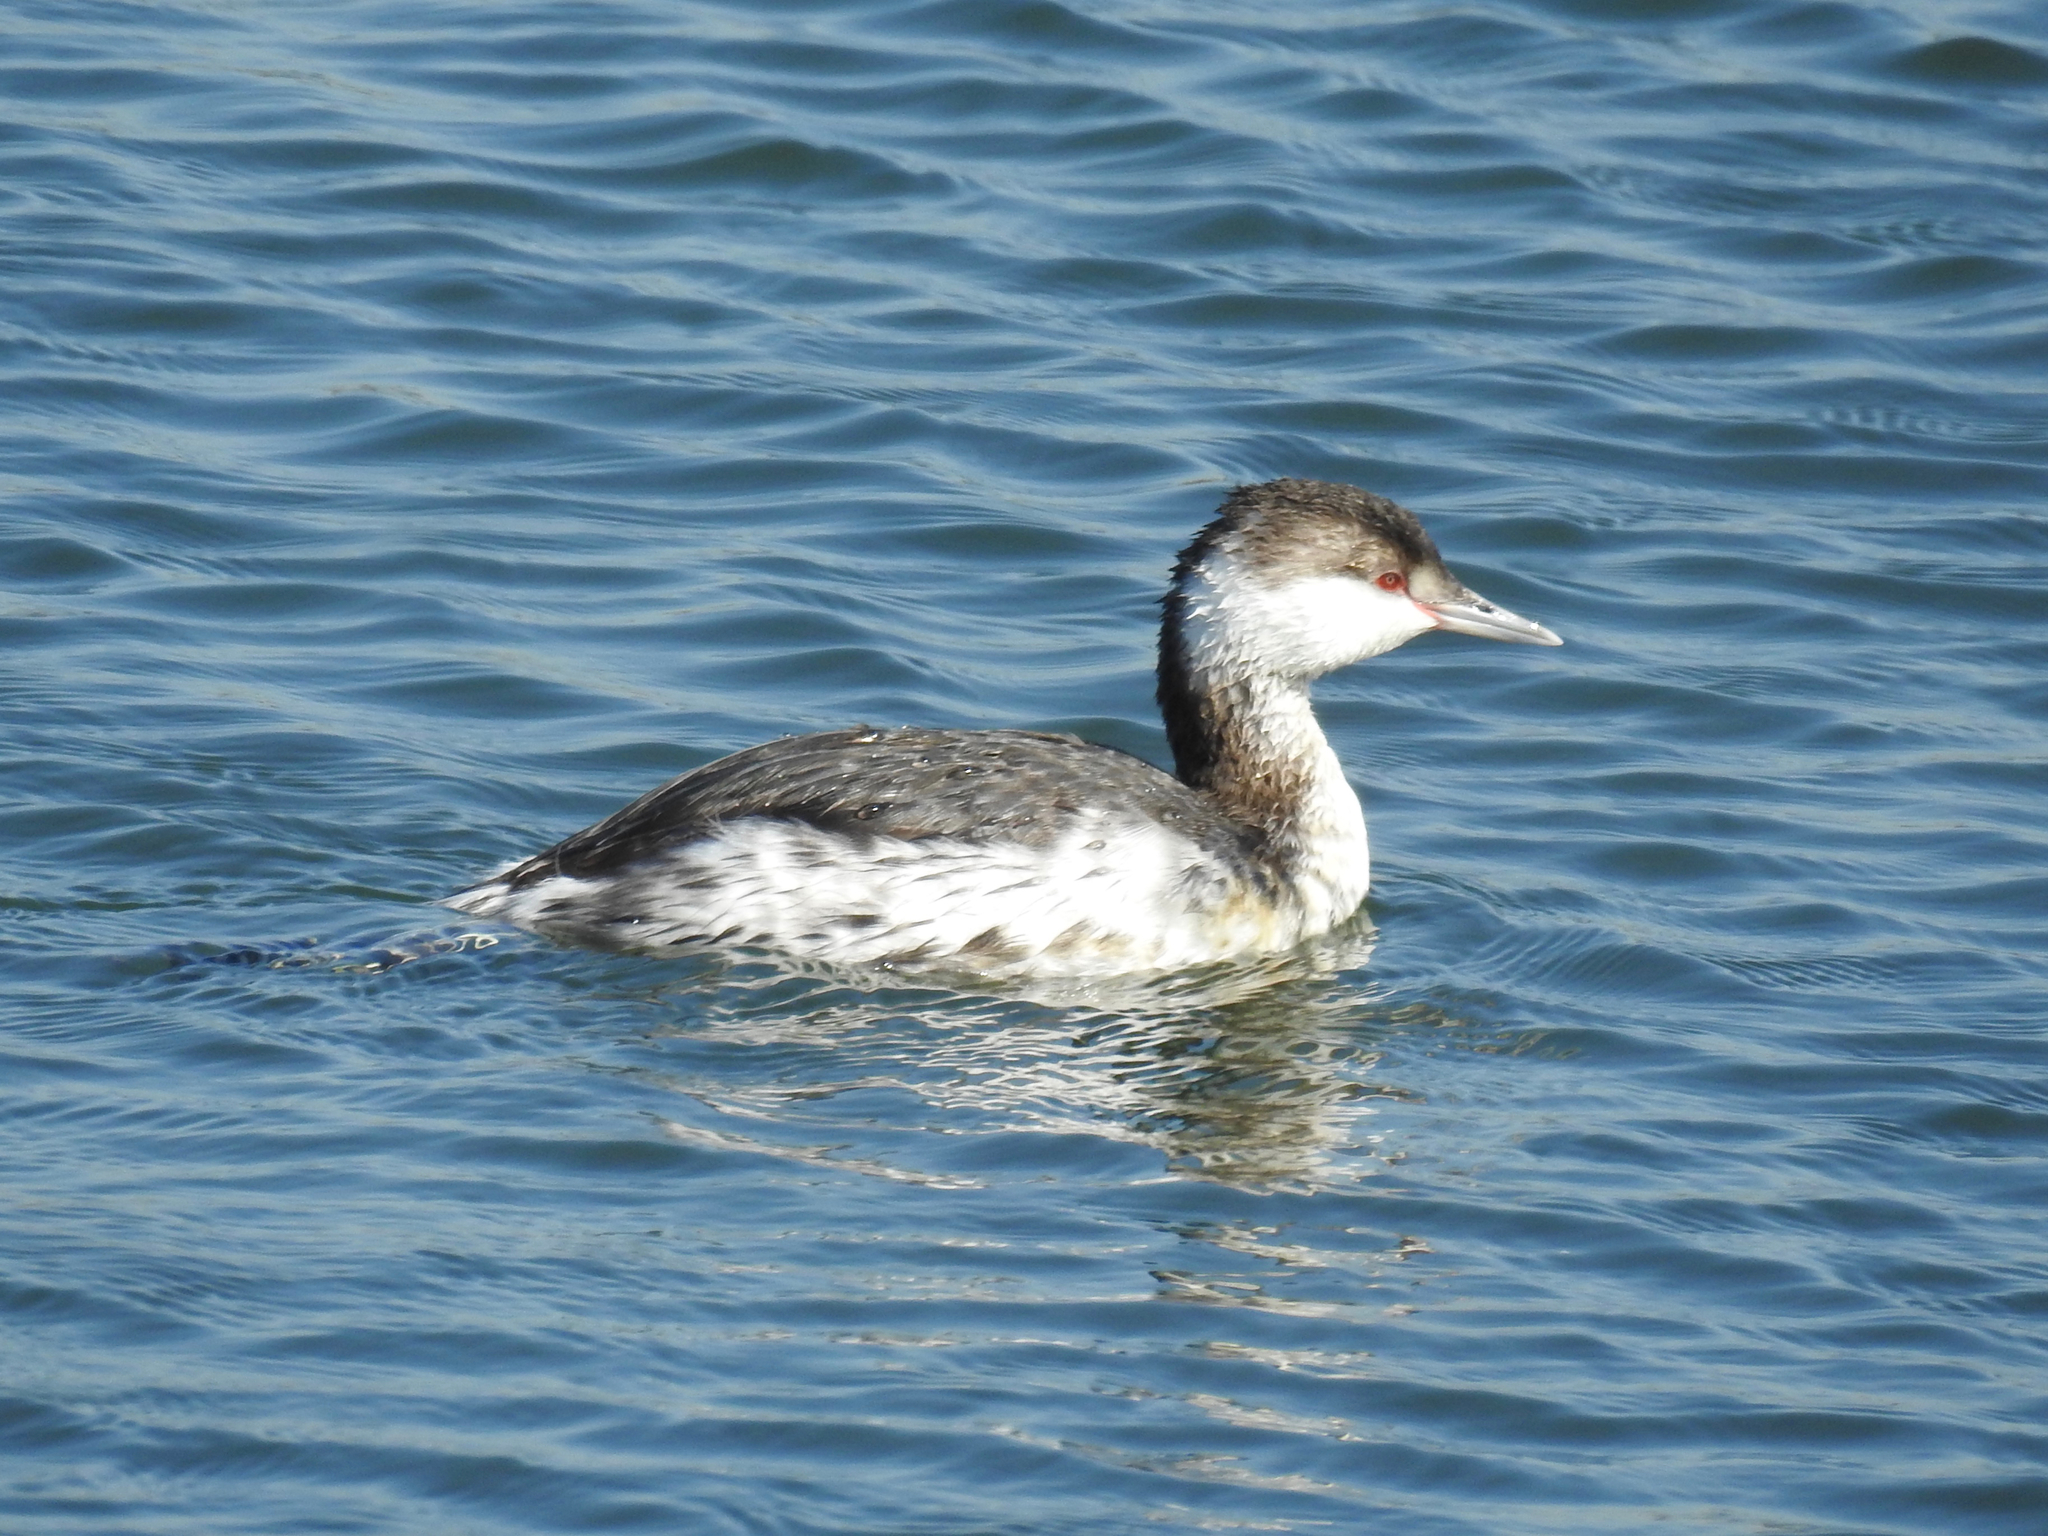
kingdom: Animalia
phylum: Chordata
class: Aves
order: Podicipediformes
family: Podicipedidae
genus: Podiceps
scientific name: Podiceps auritus
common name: Horned grebe
